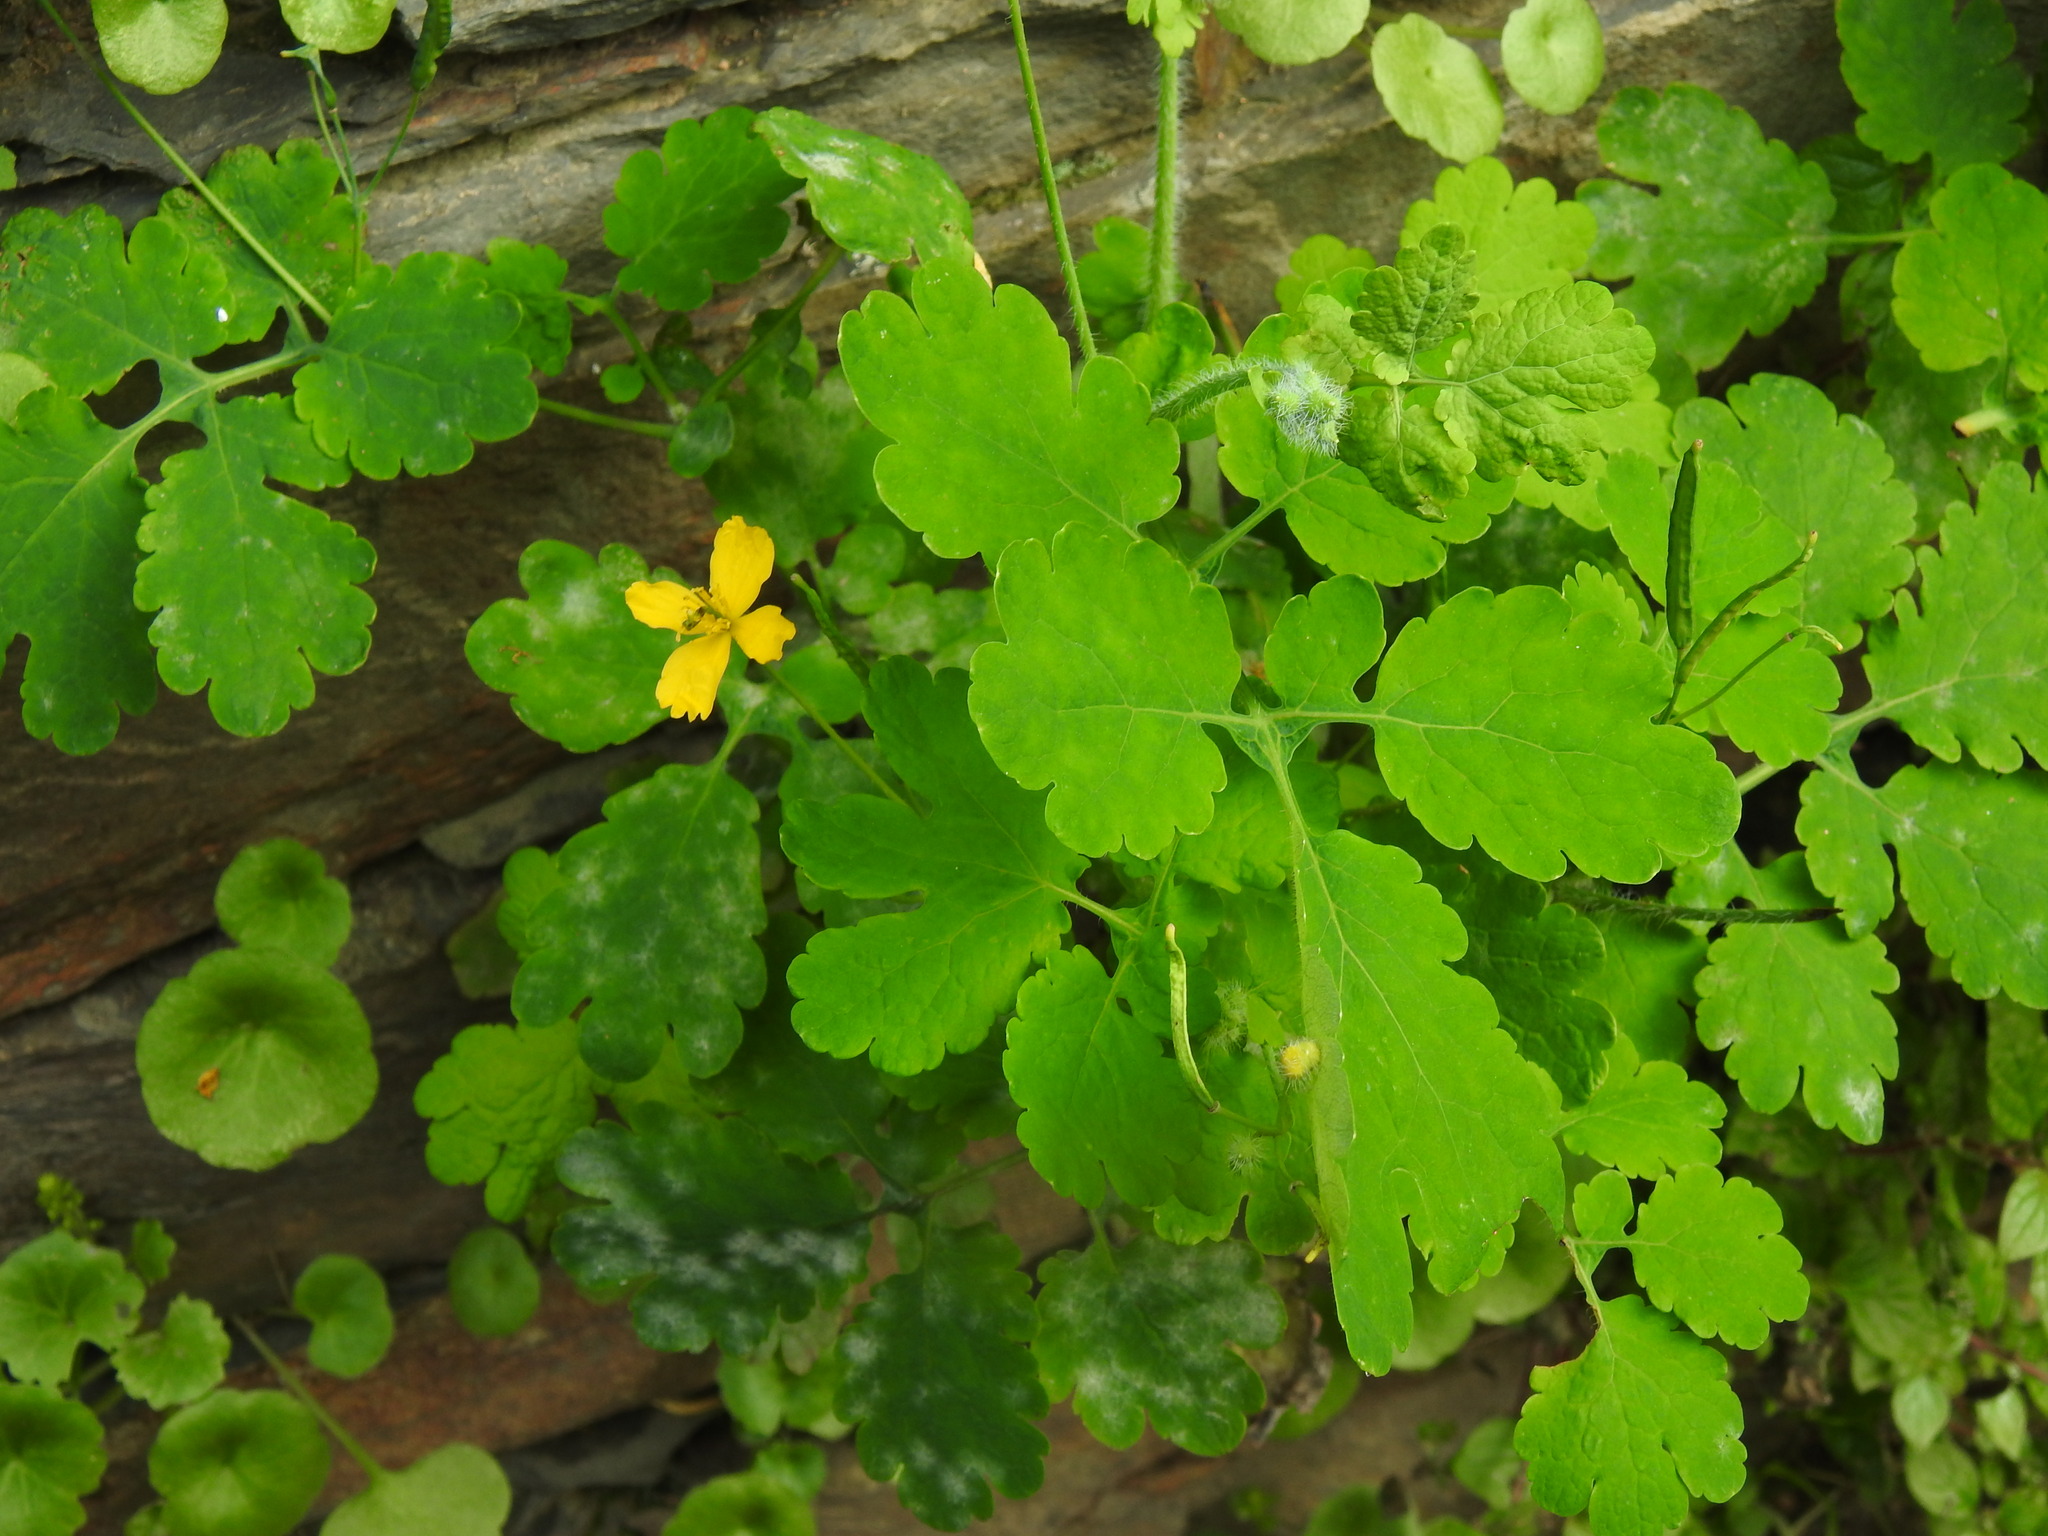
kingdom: Plantae
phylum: Tracheophyta
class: Magnoliopsida
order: Ranunculales
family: Papaveraceae
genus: Chelidonium
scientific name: Chelidonium majus
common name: Greater celandine
